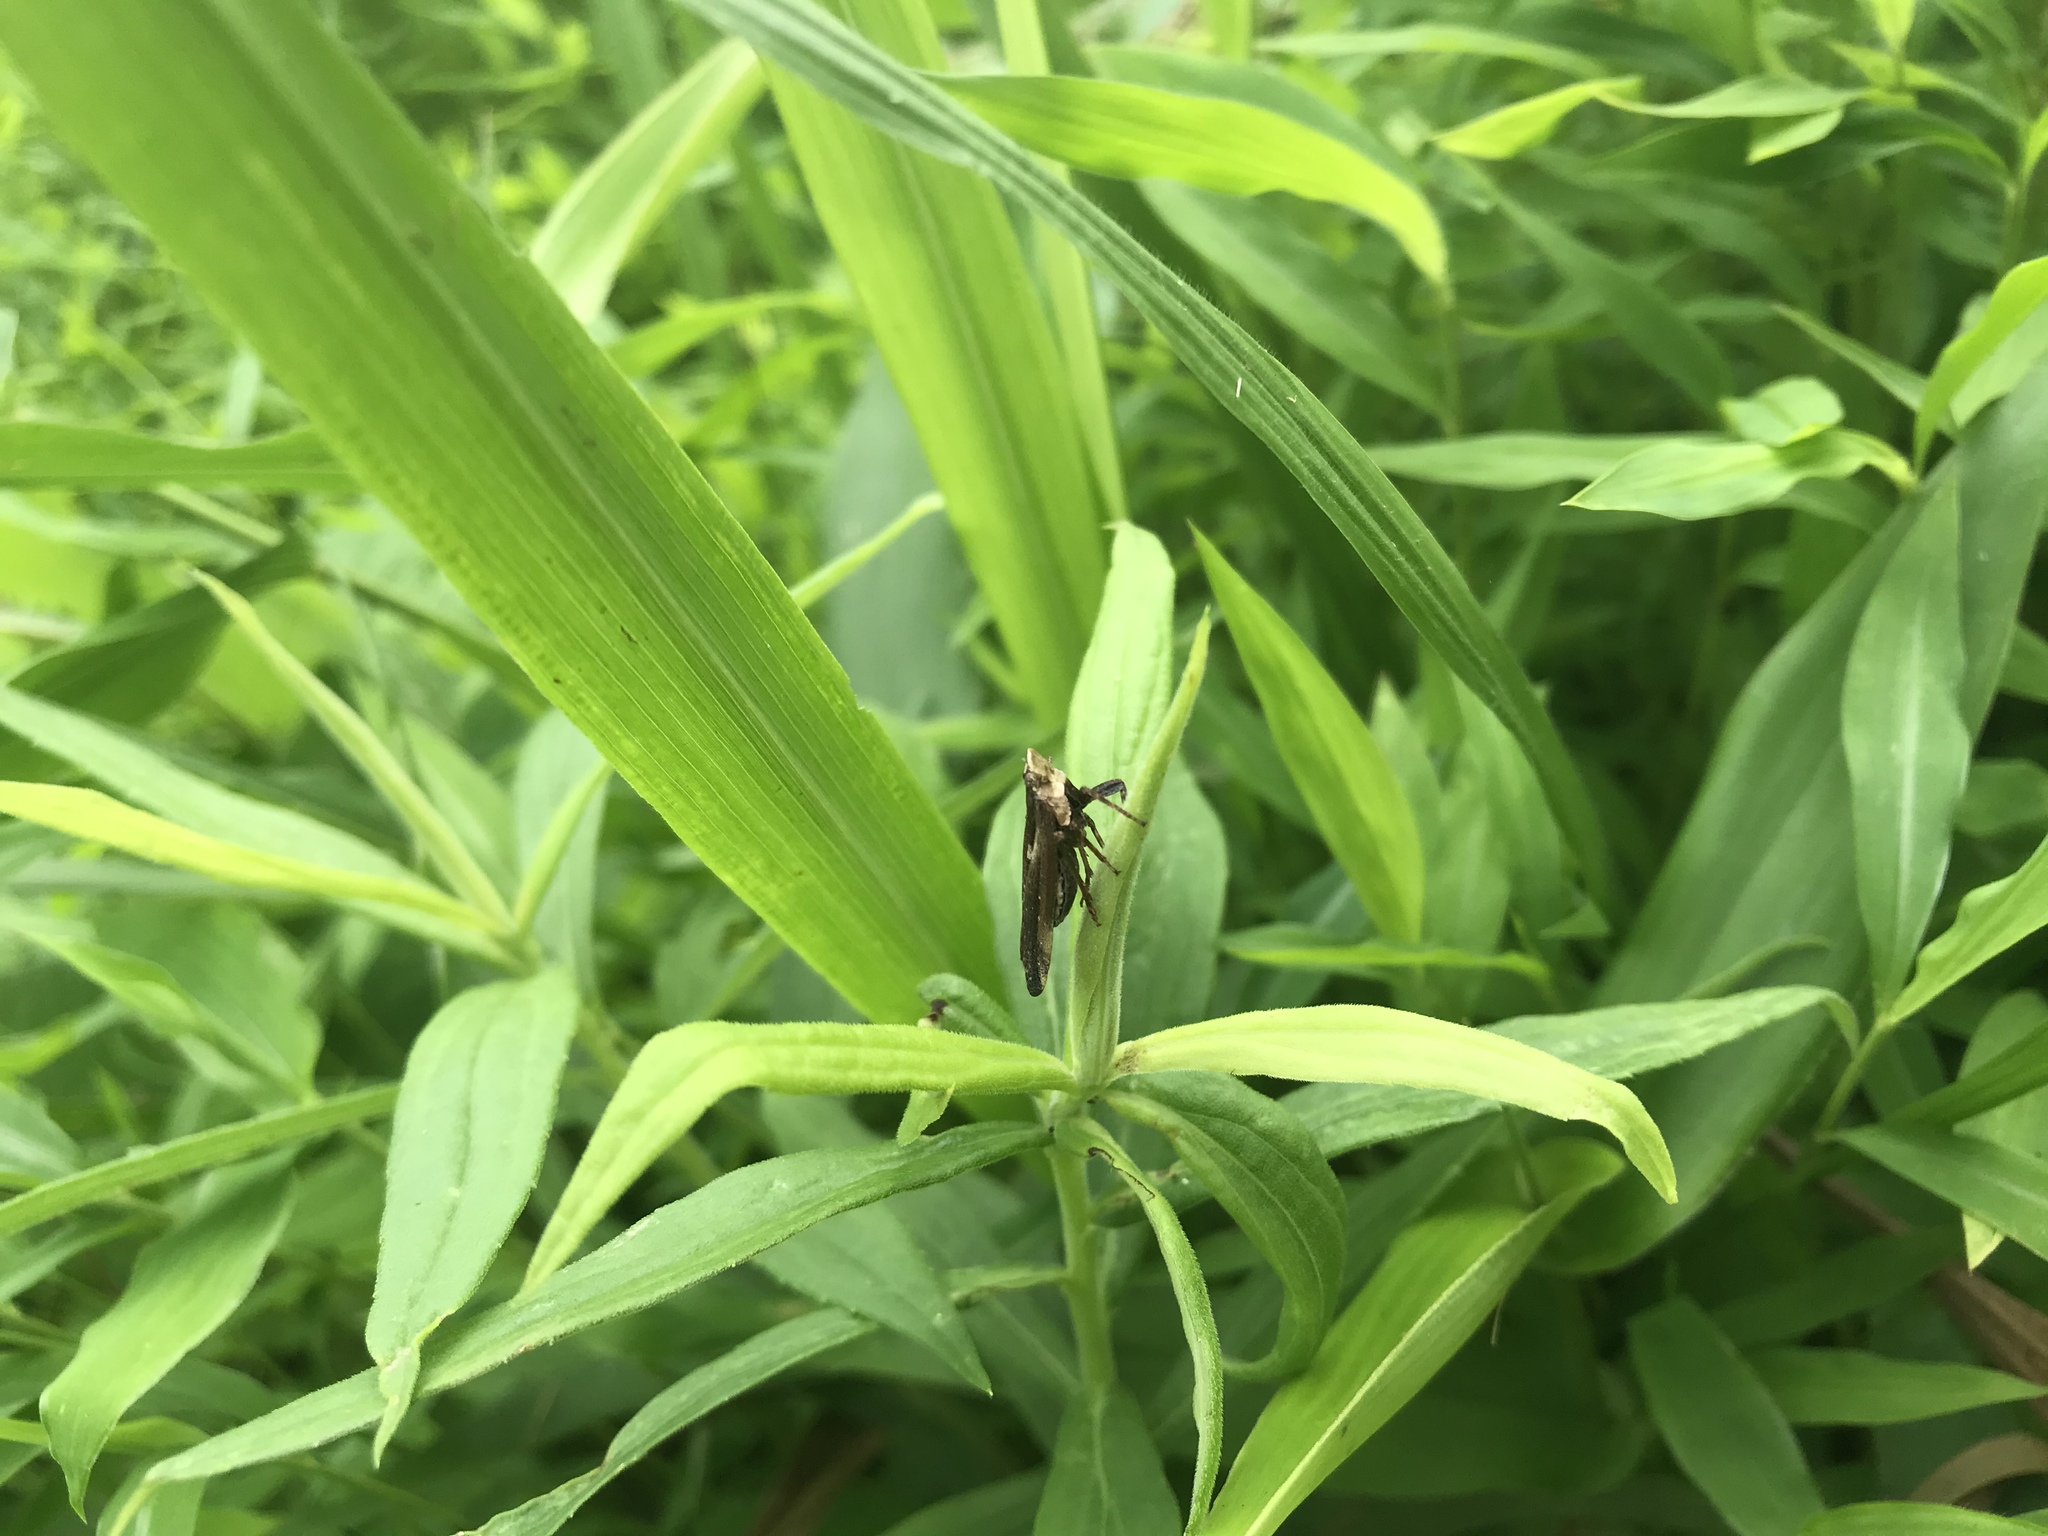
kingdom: Animalia
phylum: Arthropoda
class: Insecta
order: Hemiptera
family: Fulgoridae
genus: Cyrpoptus
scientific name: Cyrpoptus belfragei
